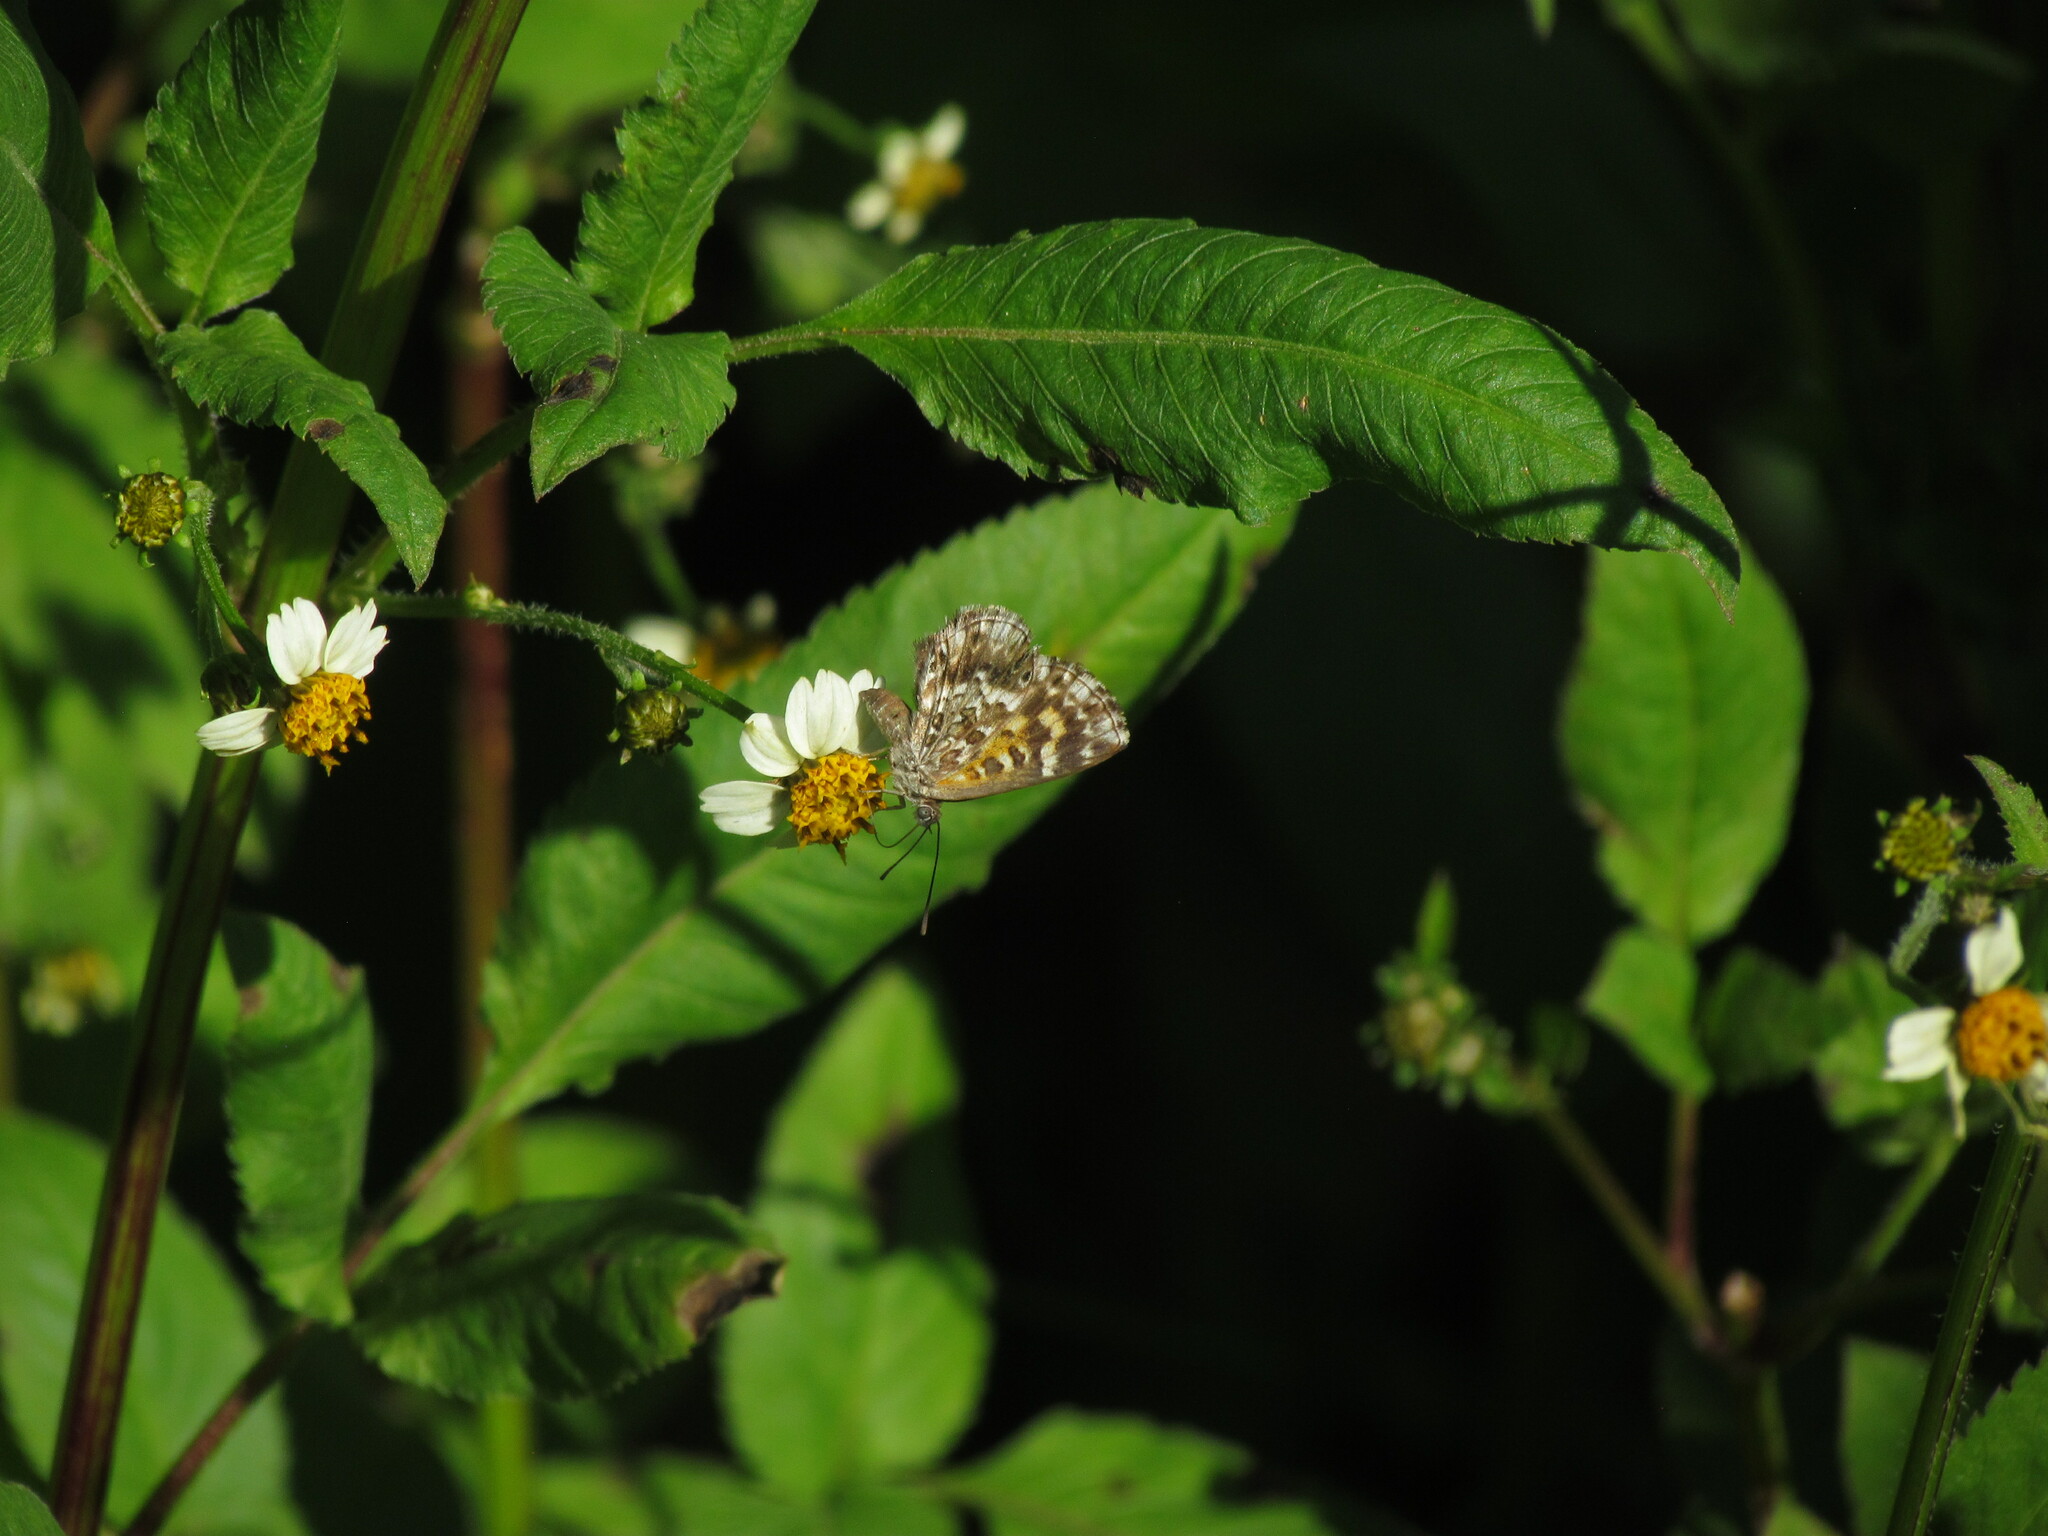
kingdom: Animalia
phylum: Arthropoda
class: Insecta
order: Lepidoptera
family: Lycaenidae
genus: Aricoris
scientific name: Aricoris signata
